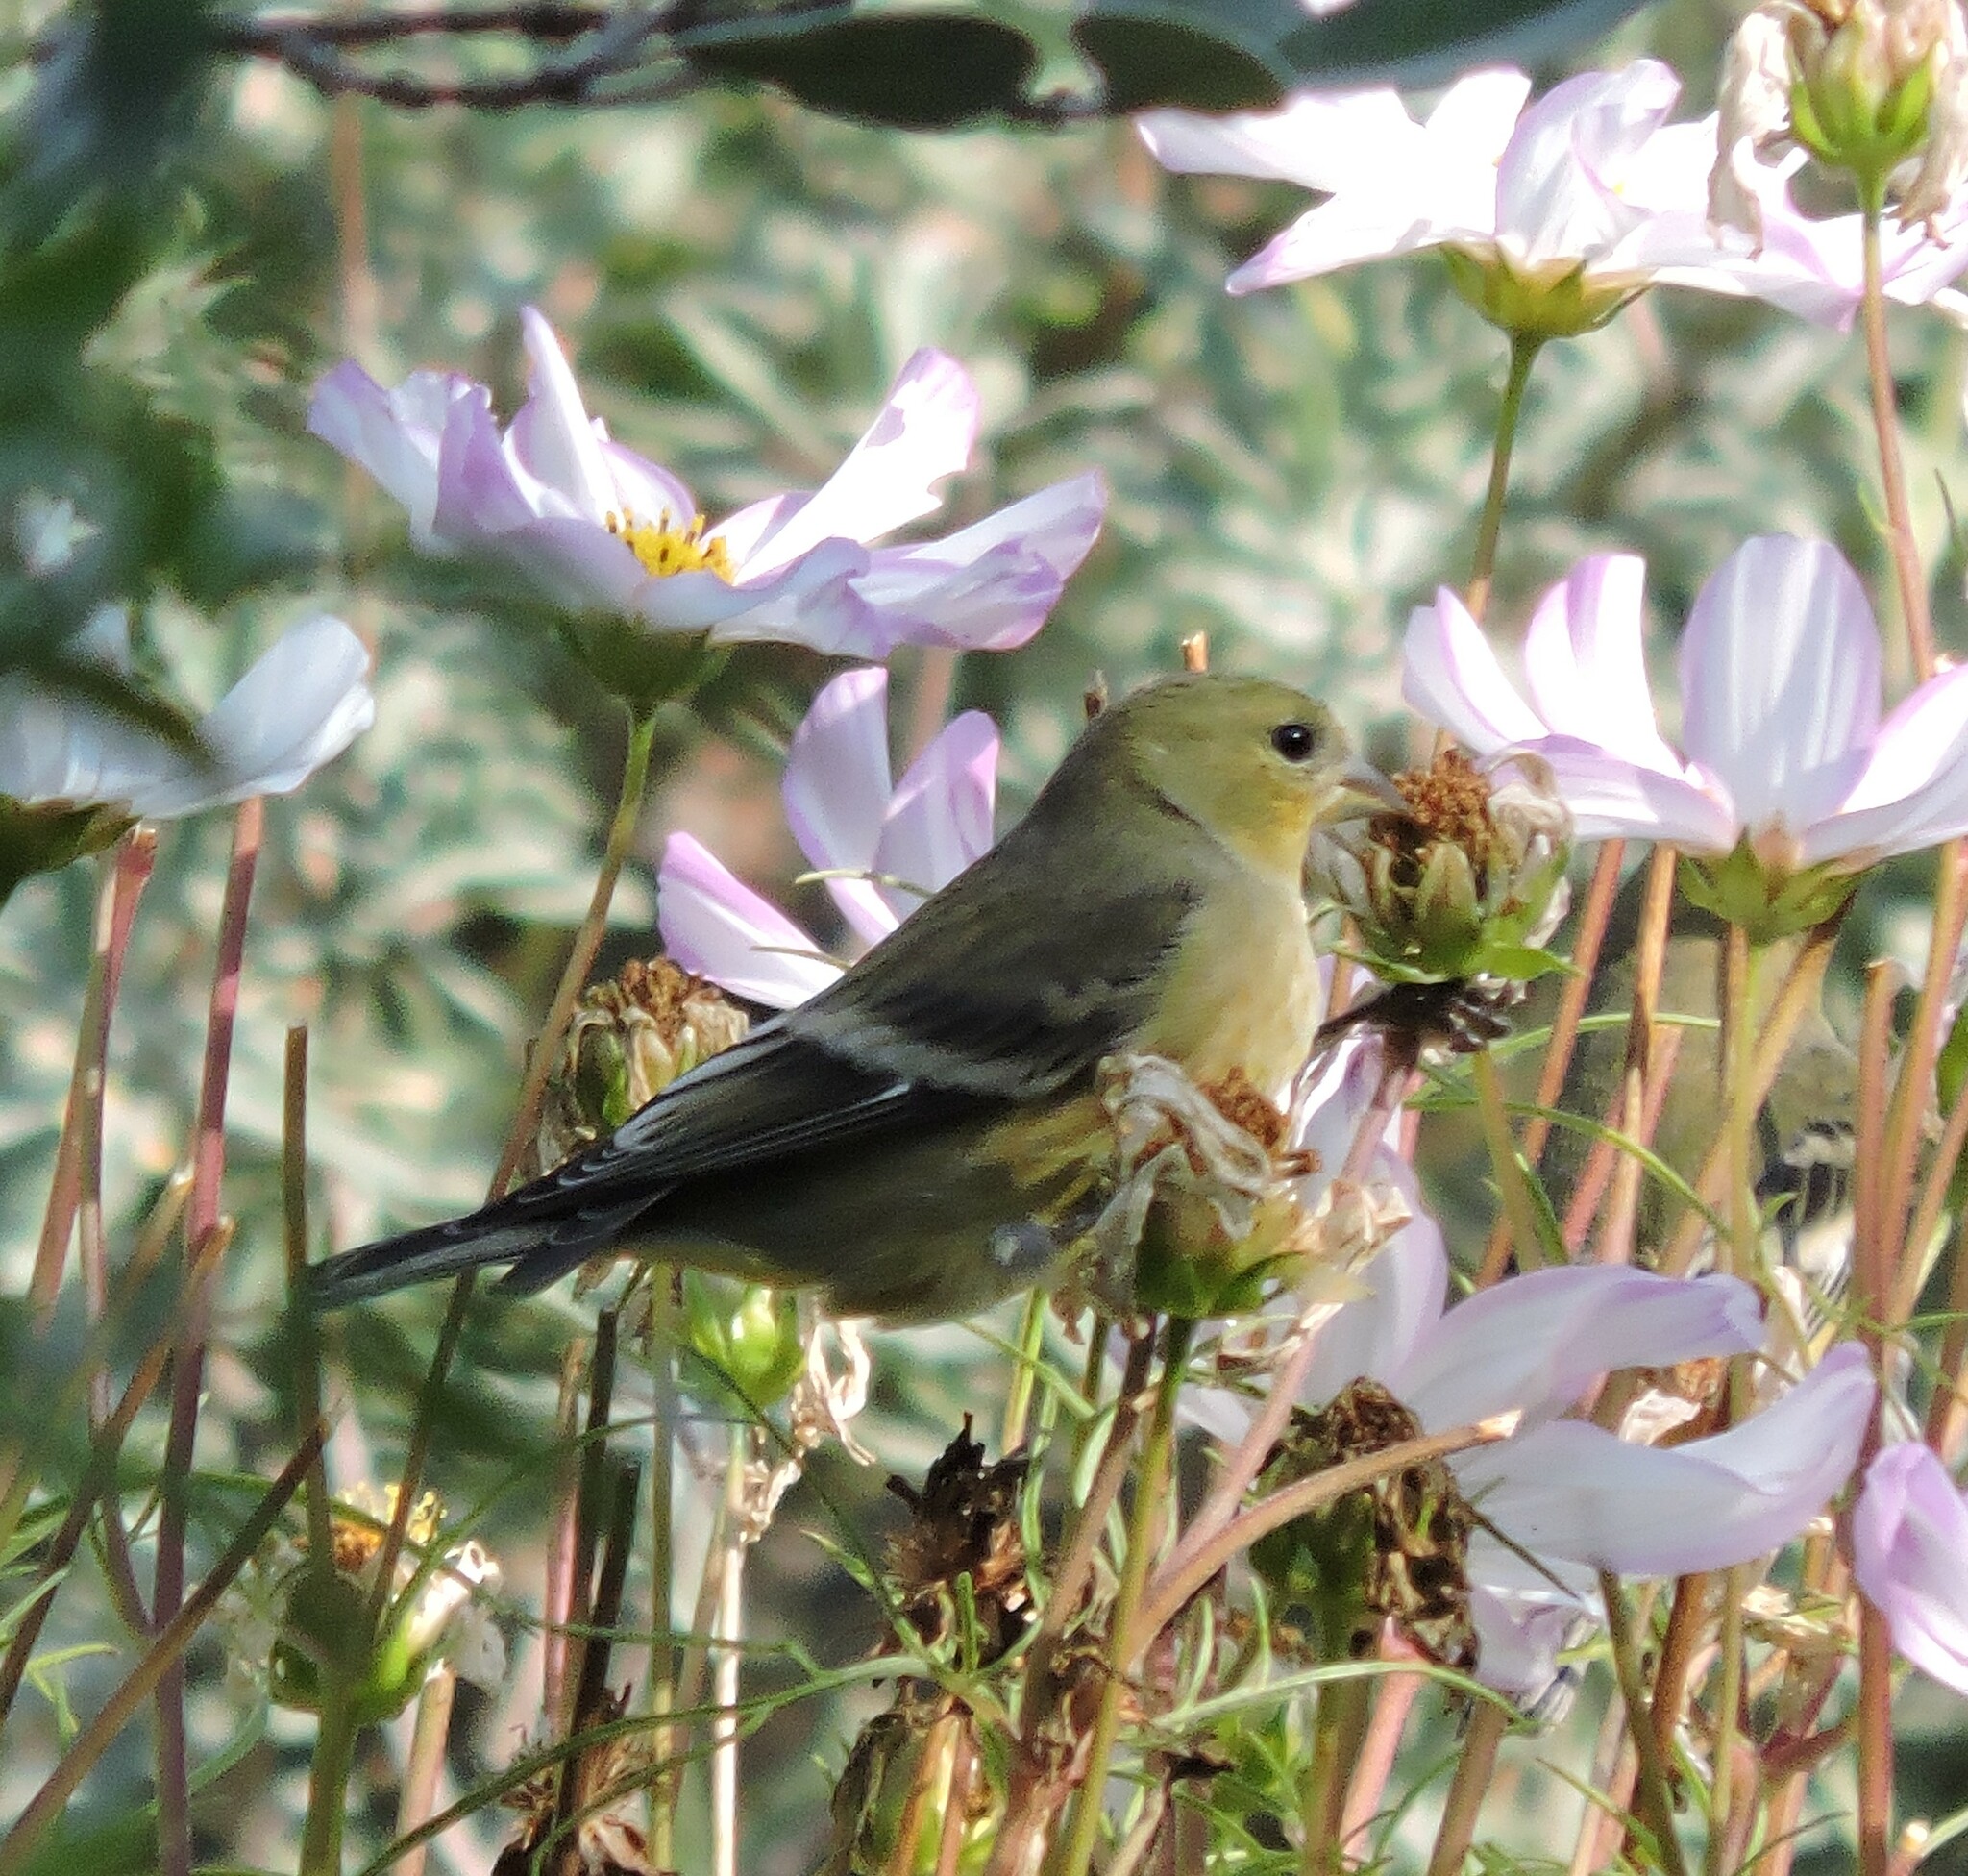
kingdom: Animalia
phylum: Chordata
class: Aves
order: Passeriformes
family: Fringillidae
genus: Spinus
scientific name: Spinus psaltria
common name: Lesser goldfinch
